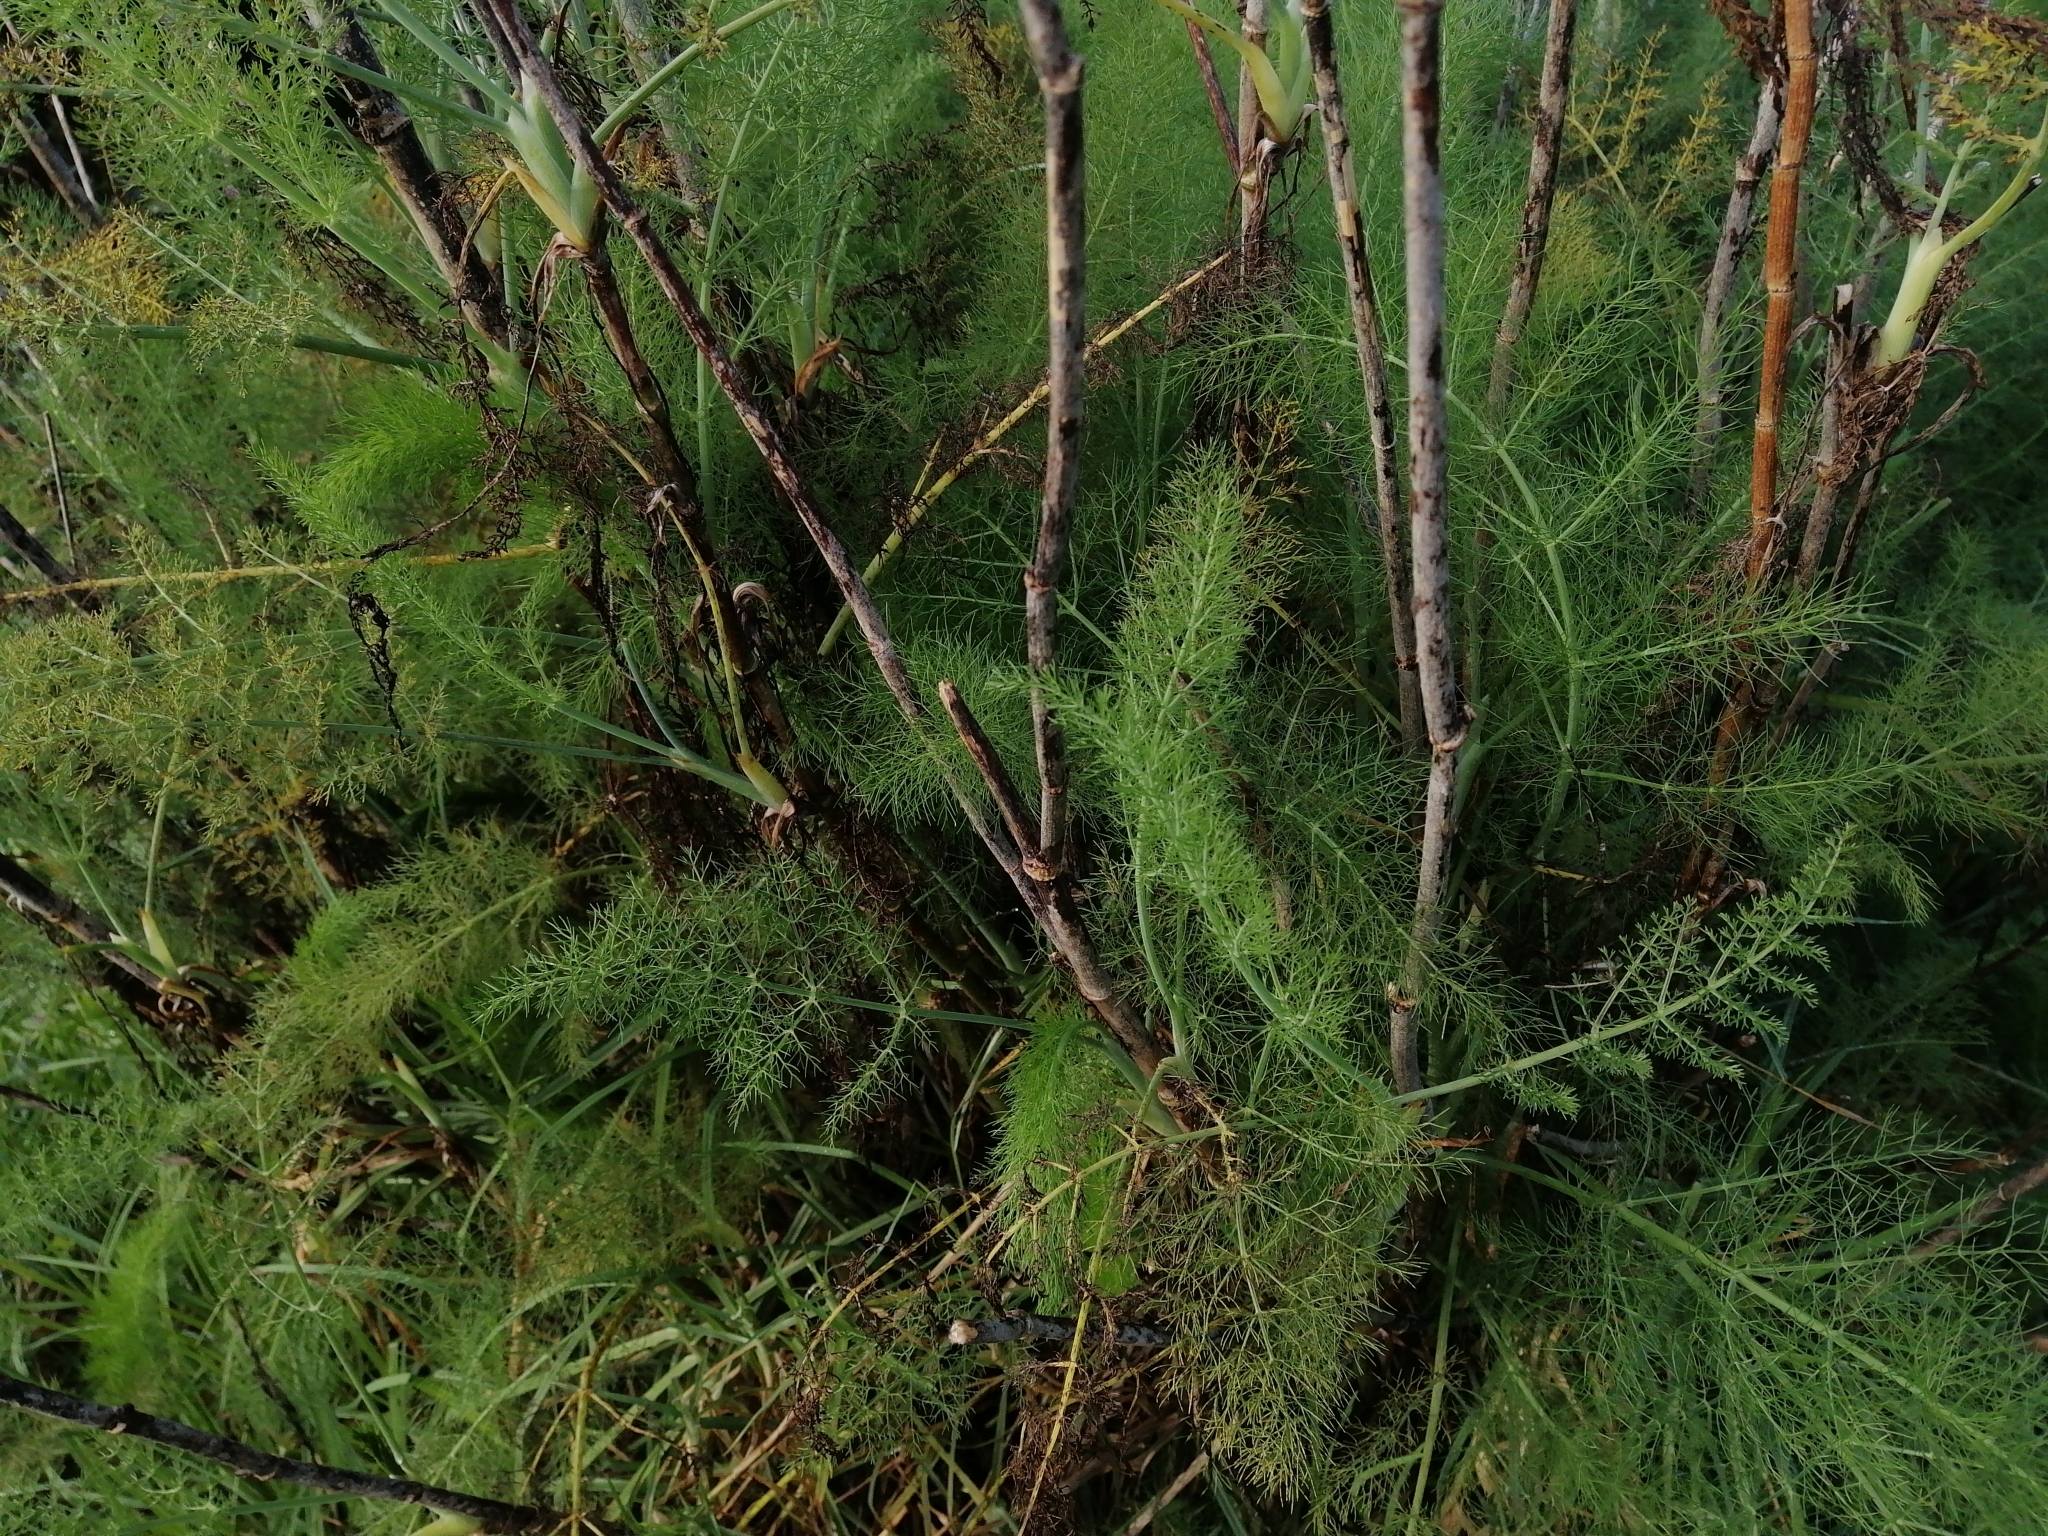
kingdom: Plantae
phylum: Tracheophyta
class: Magnoliopsida
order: Apiales
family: Apiaceae
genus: Foeniculum
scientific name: Foeniculum vulgare
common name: Fennel
